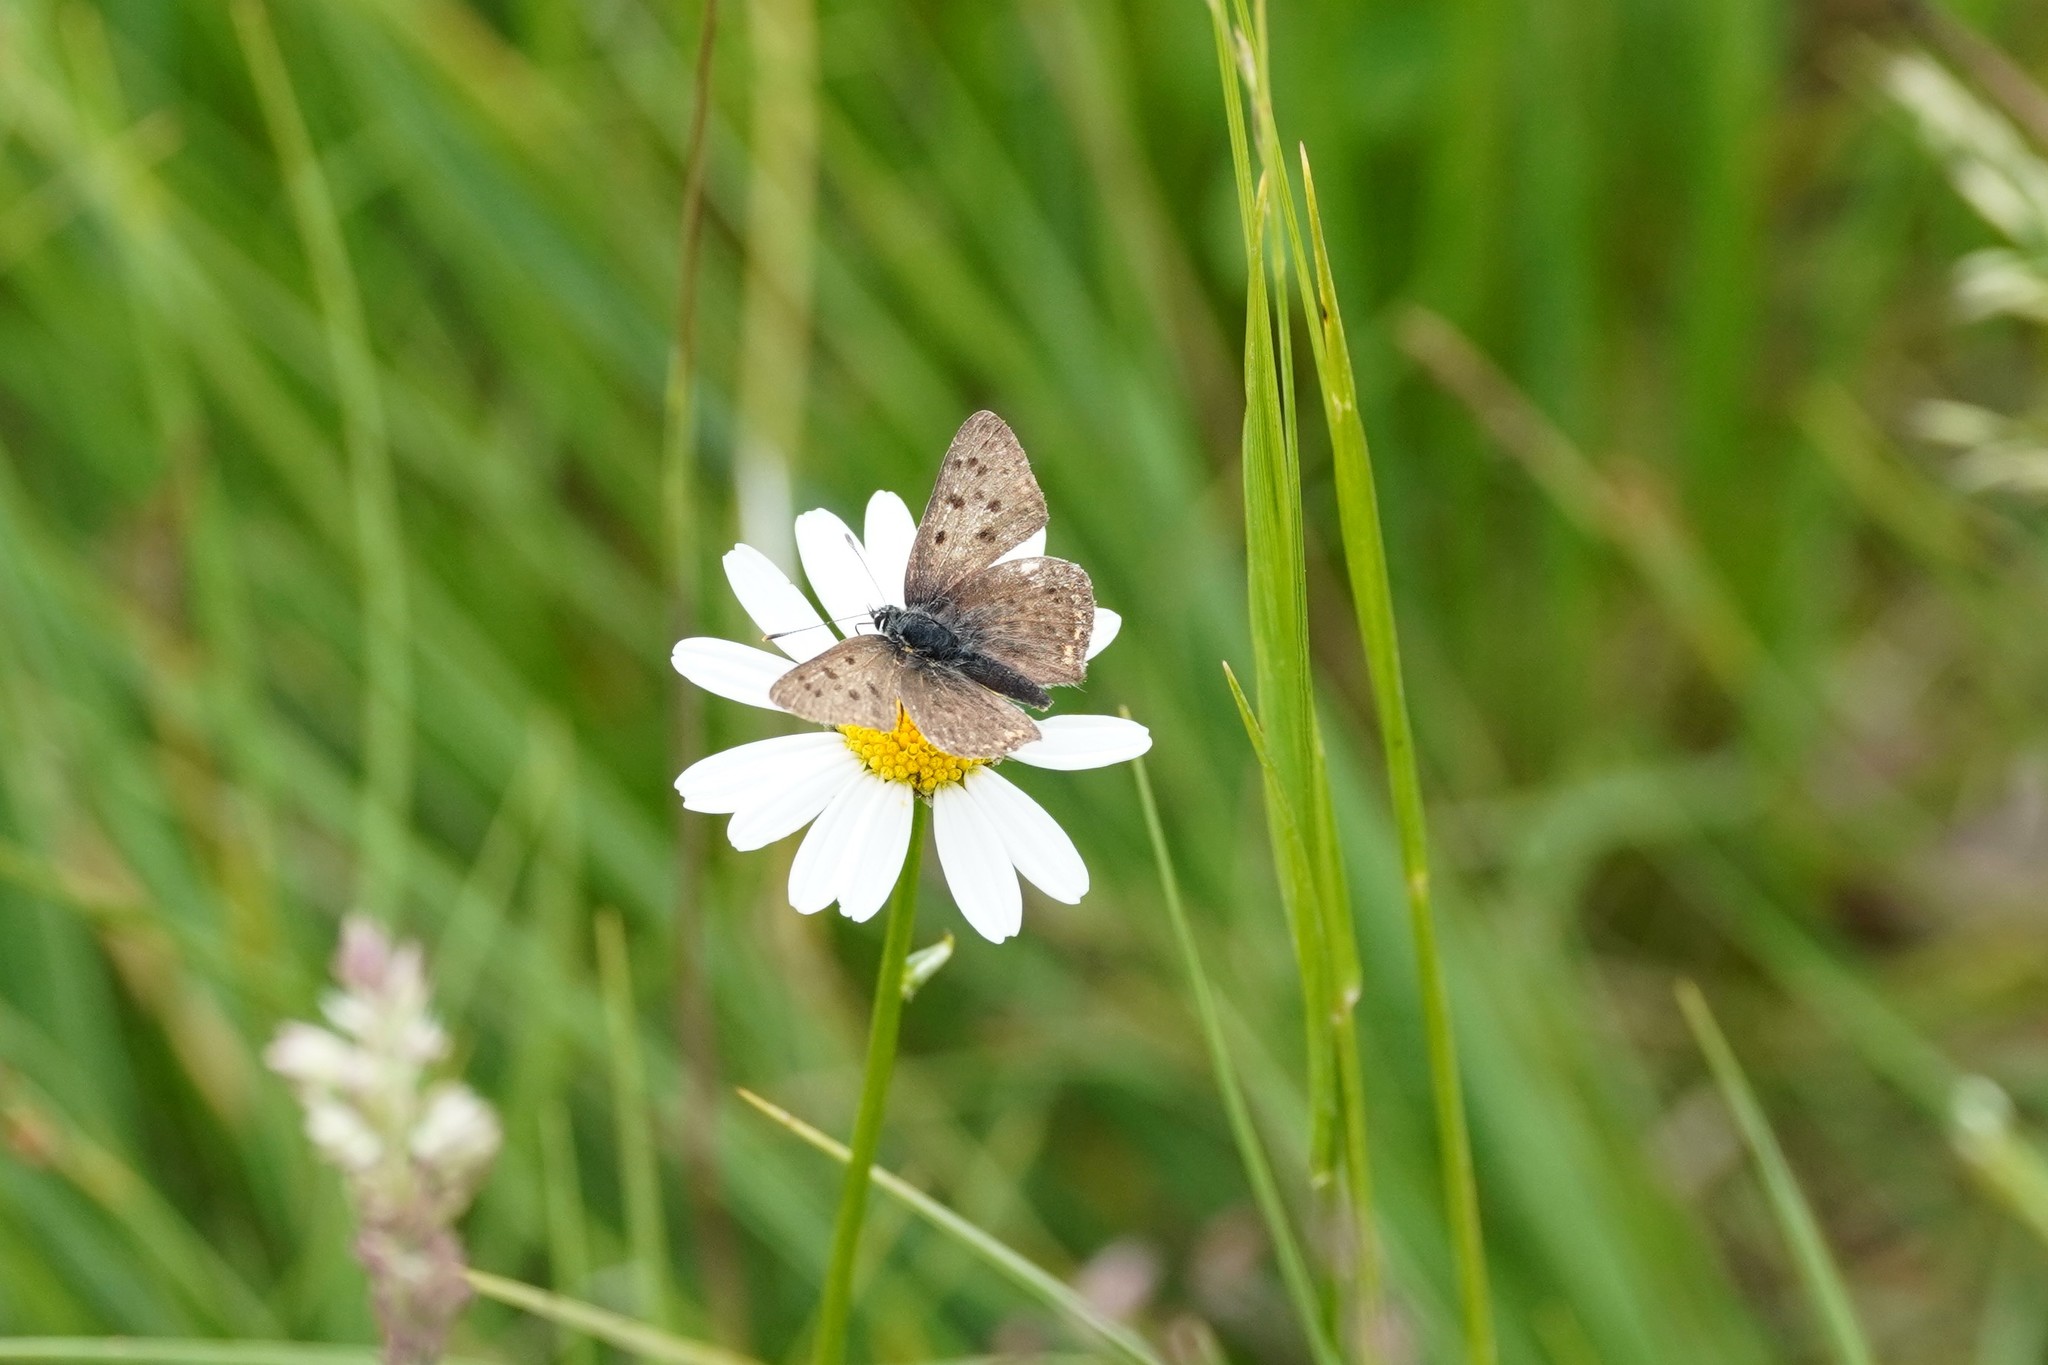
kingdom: Animalia
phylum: Arthropoda
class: Insecta
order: Lepidoptera
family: Lycaenidae
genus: Loweia
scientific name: Loweia tityrus
